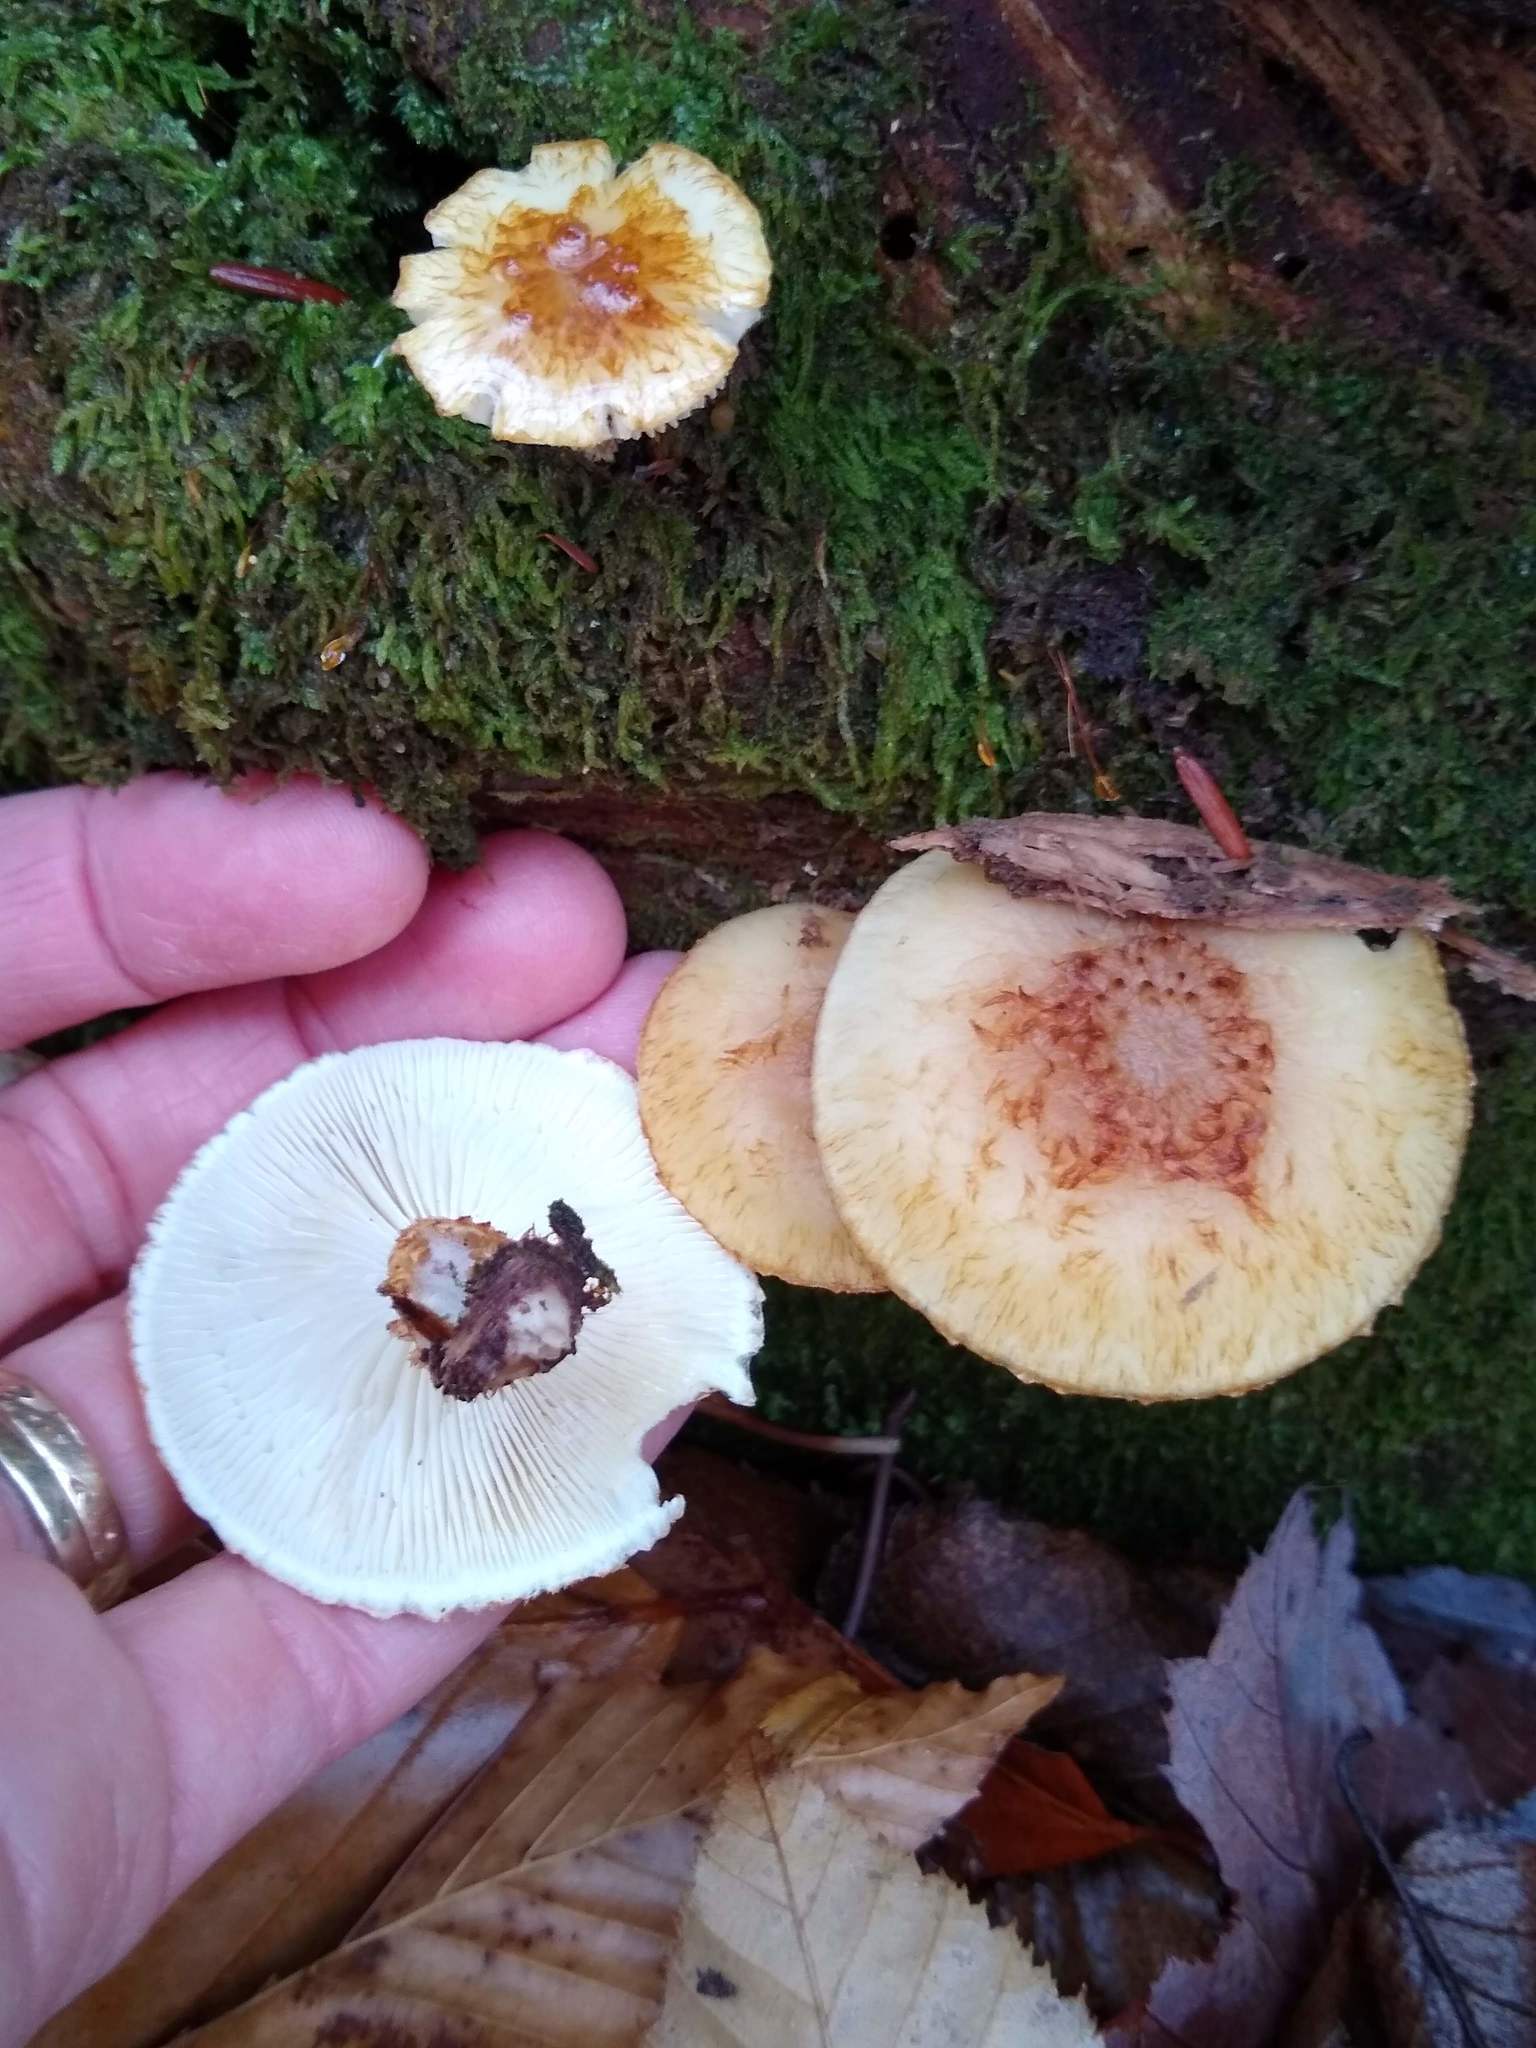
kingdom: Fungi
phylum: Basidiomycota
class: Agaricomycetes
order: Agaricales
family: Agaricaceae
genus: Leucopholiota
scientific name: Leucopholiota decorosa
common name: Decorated pholiota
